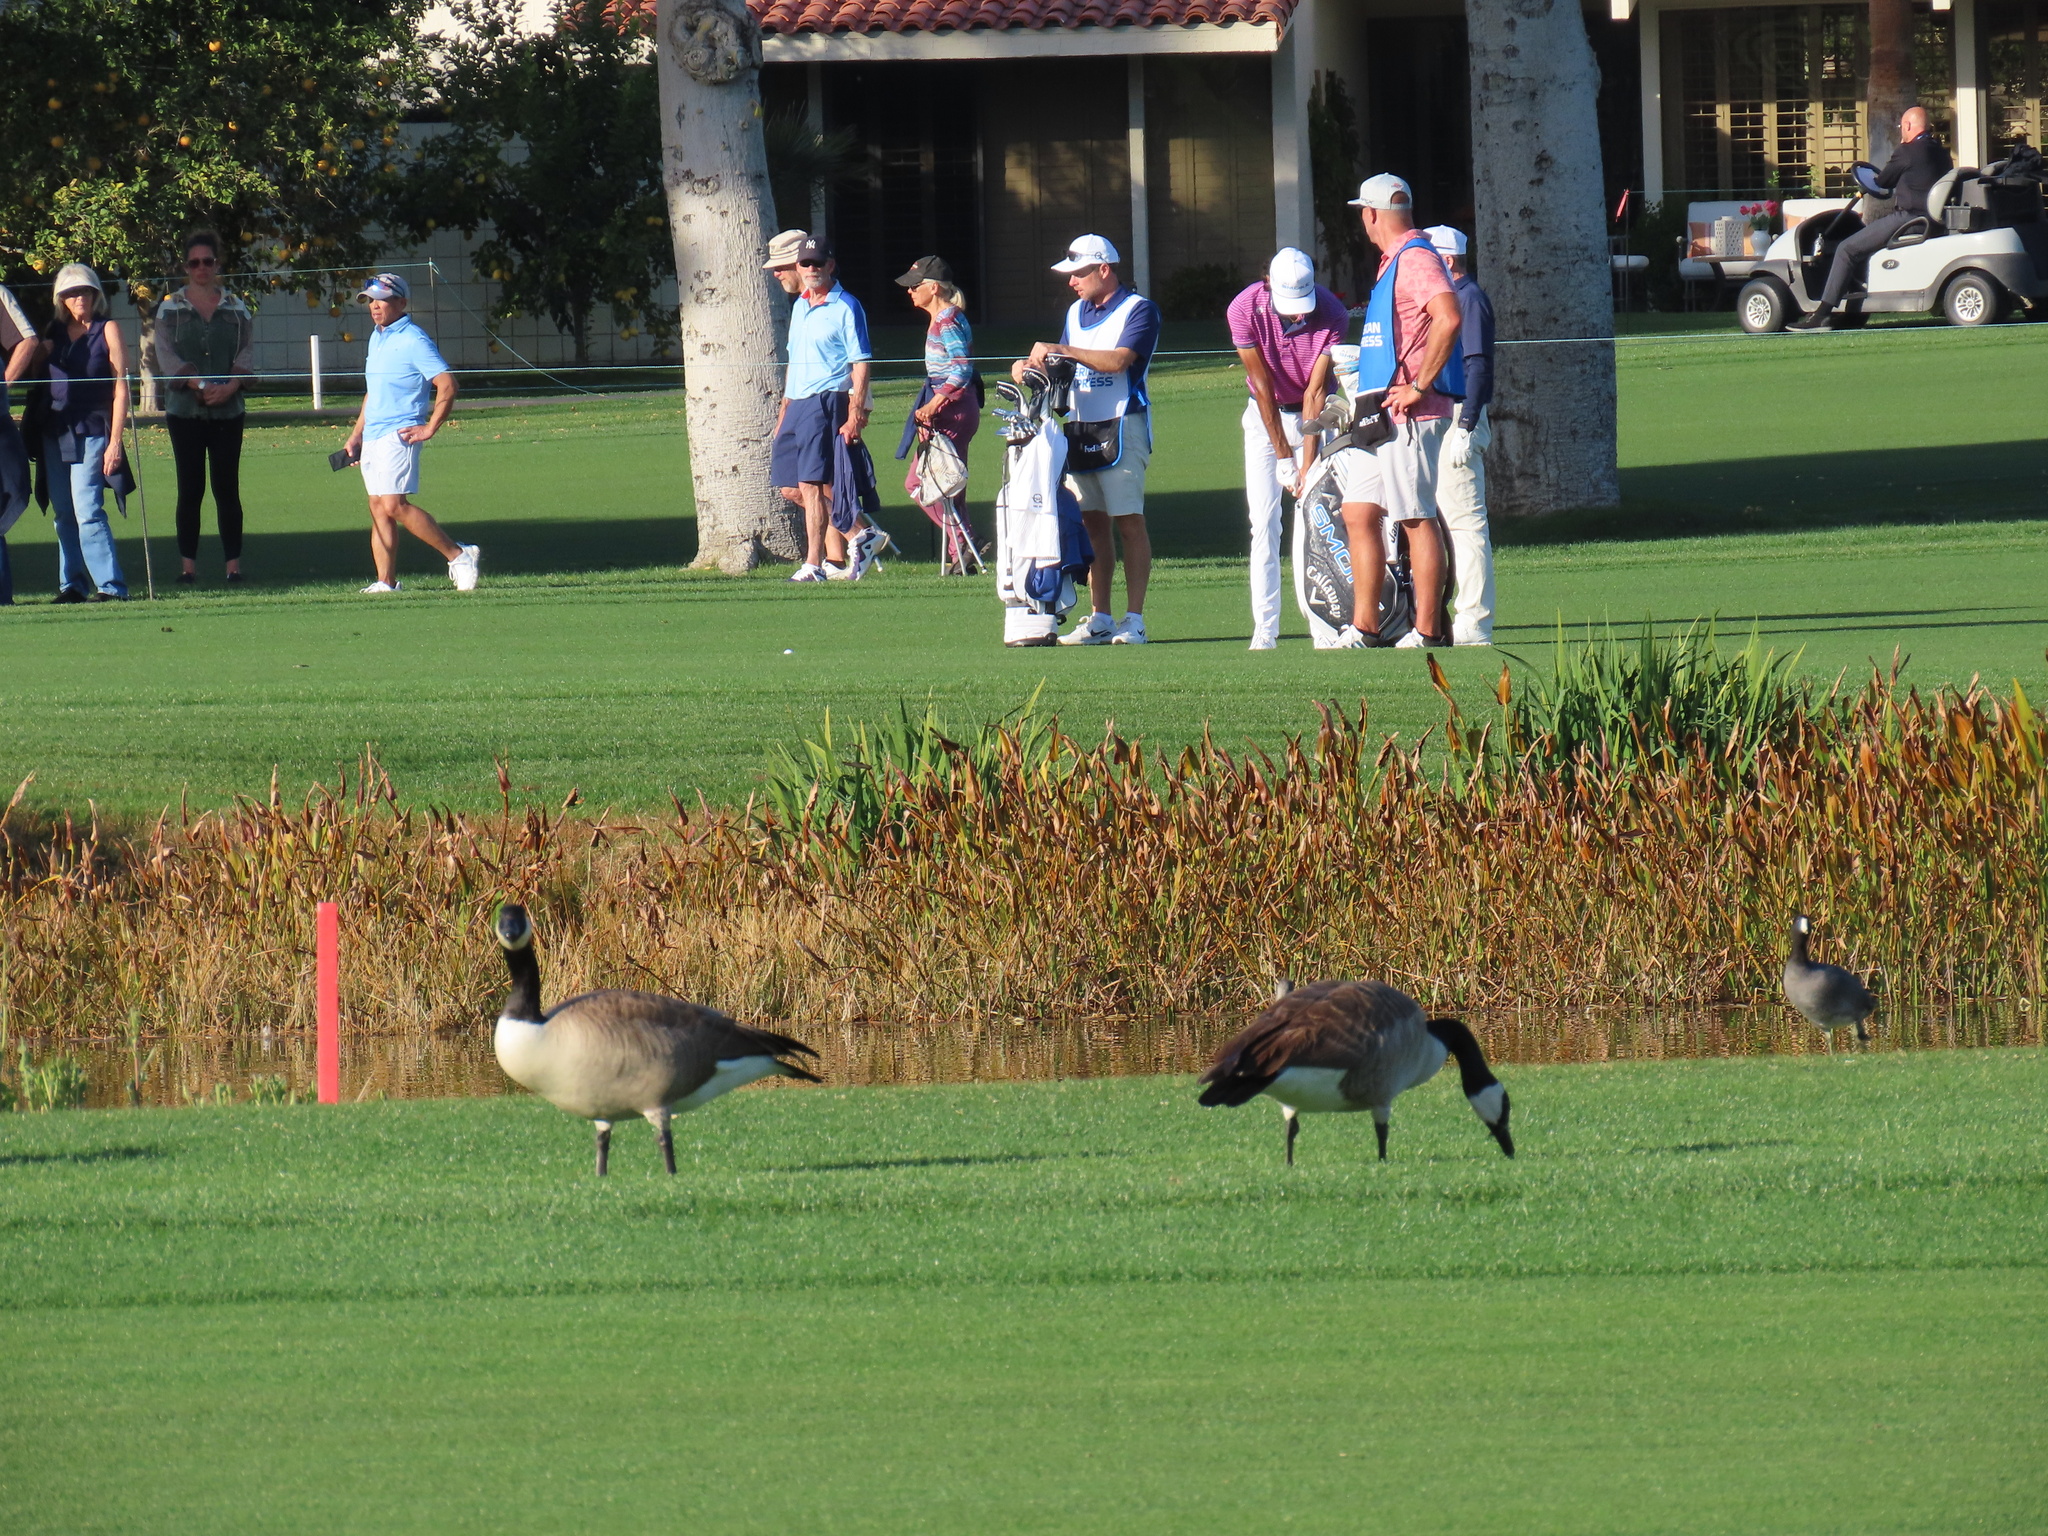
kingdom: Animalia
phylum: Chordata
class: Aves
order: Anseriformes
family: Anatidae
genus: Branta
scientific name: Branta canadensis
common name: Canada goose
